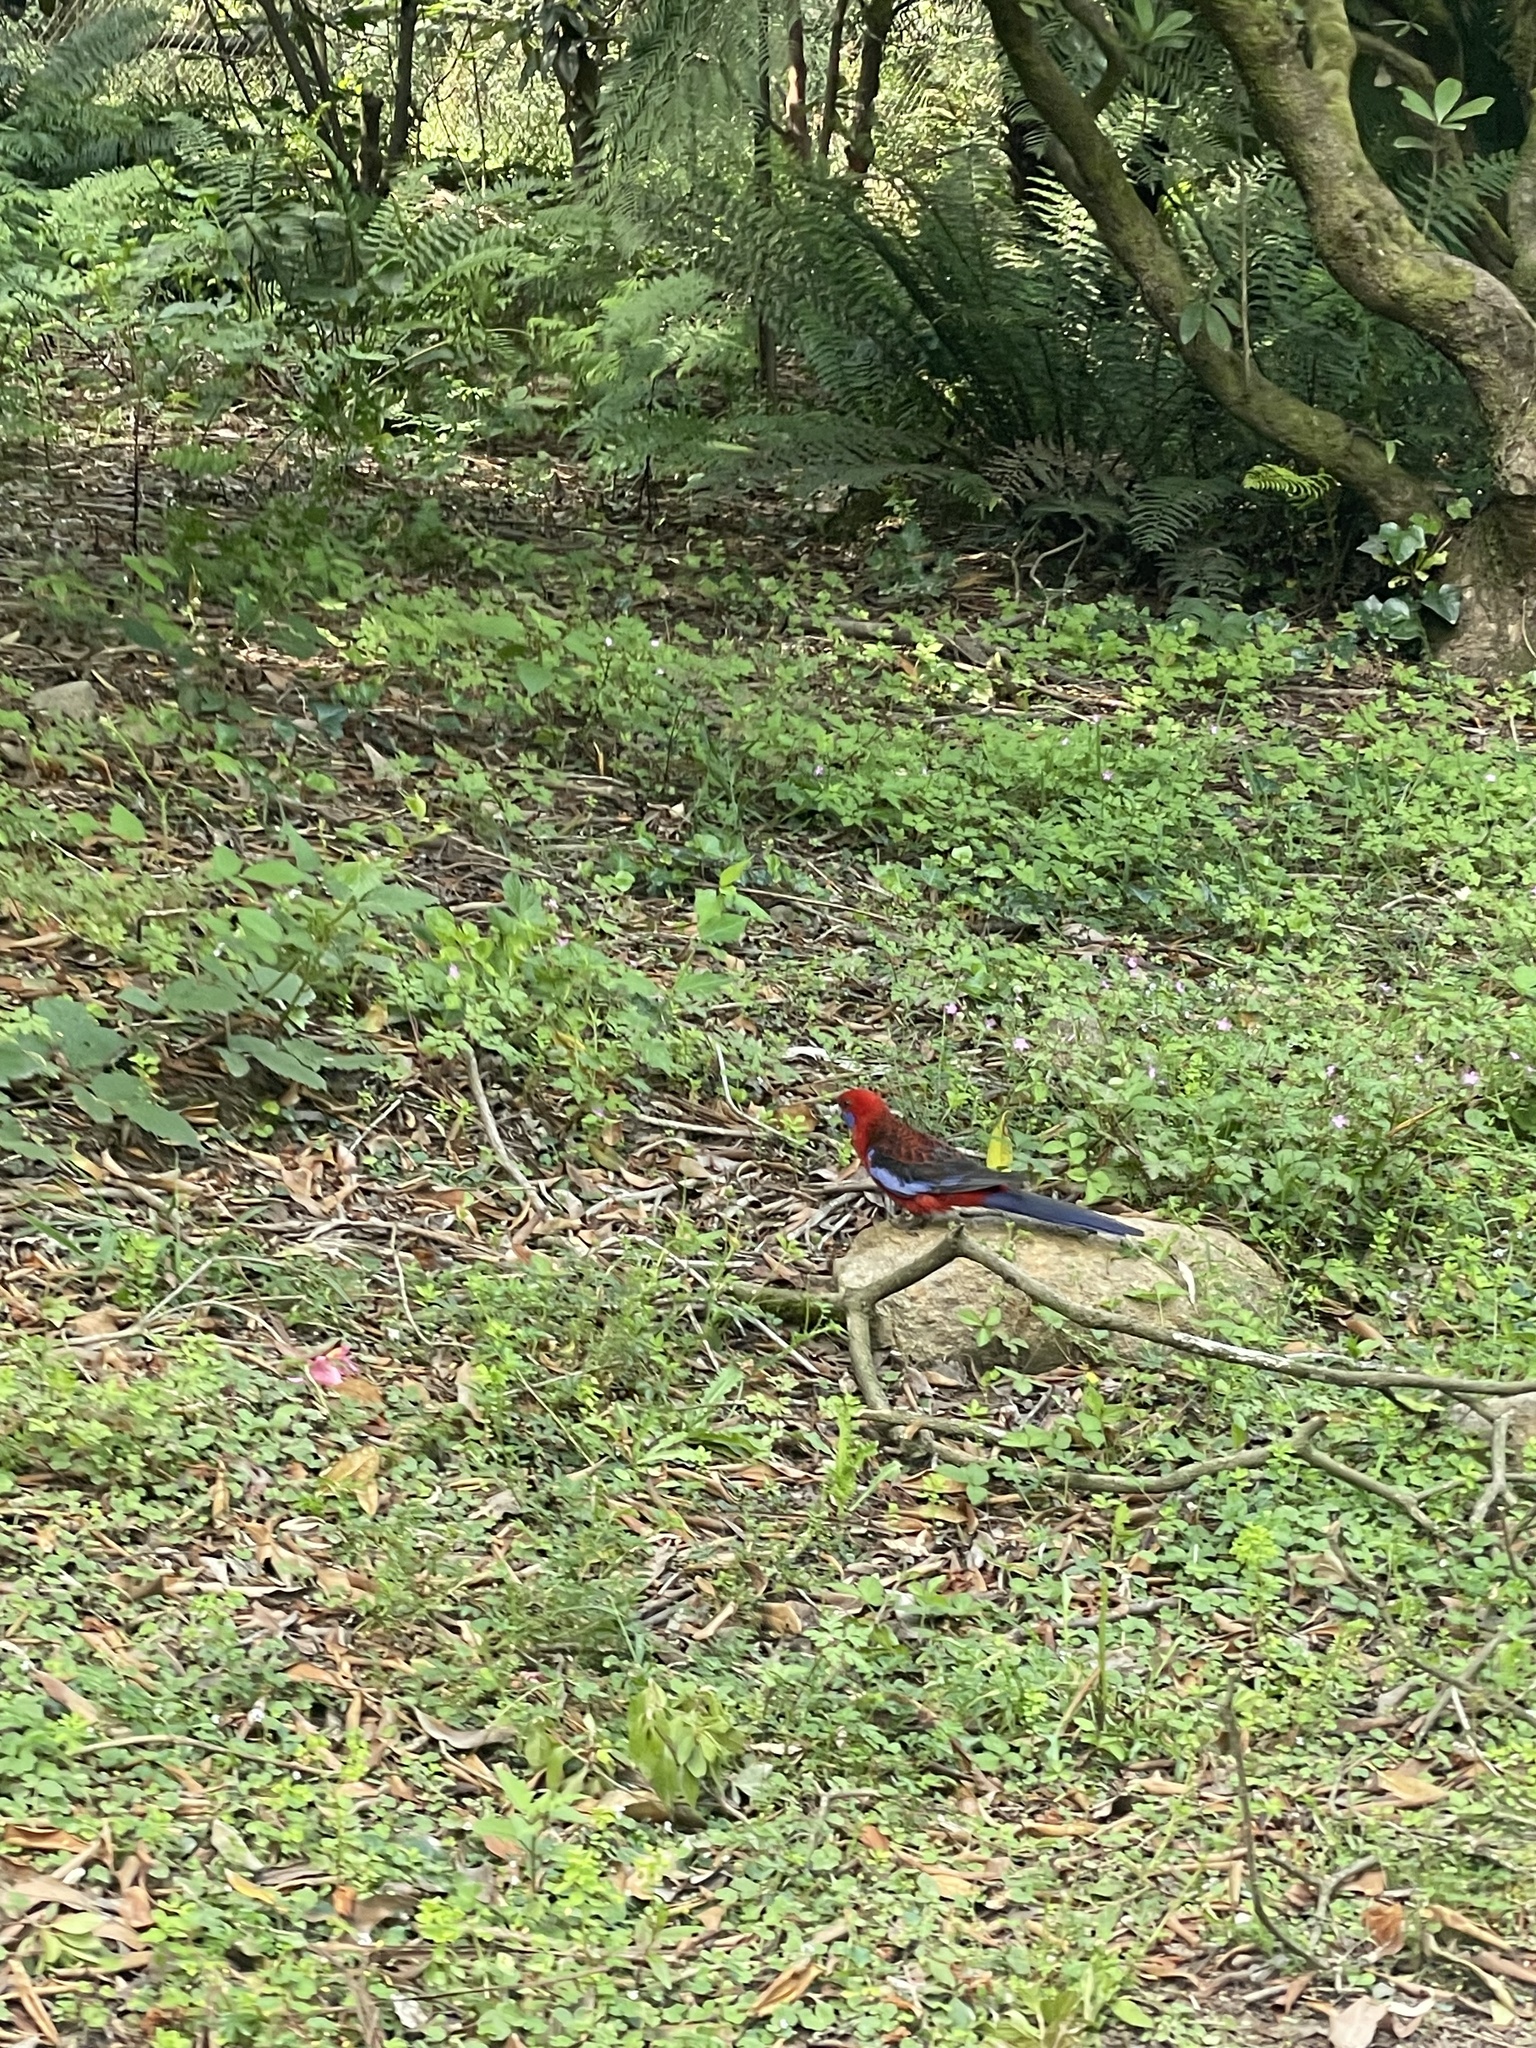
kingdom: Animalia
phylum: Chordata
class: Aves
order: Psittaciformes
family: Psittacidae
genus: Platycercus
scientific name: Platycercus elegans
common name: Crimson rosella
